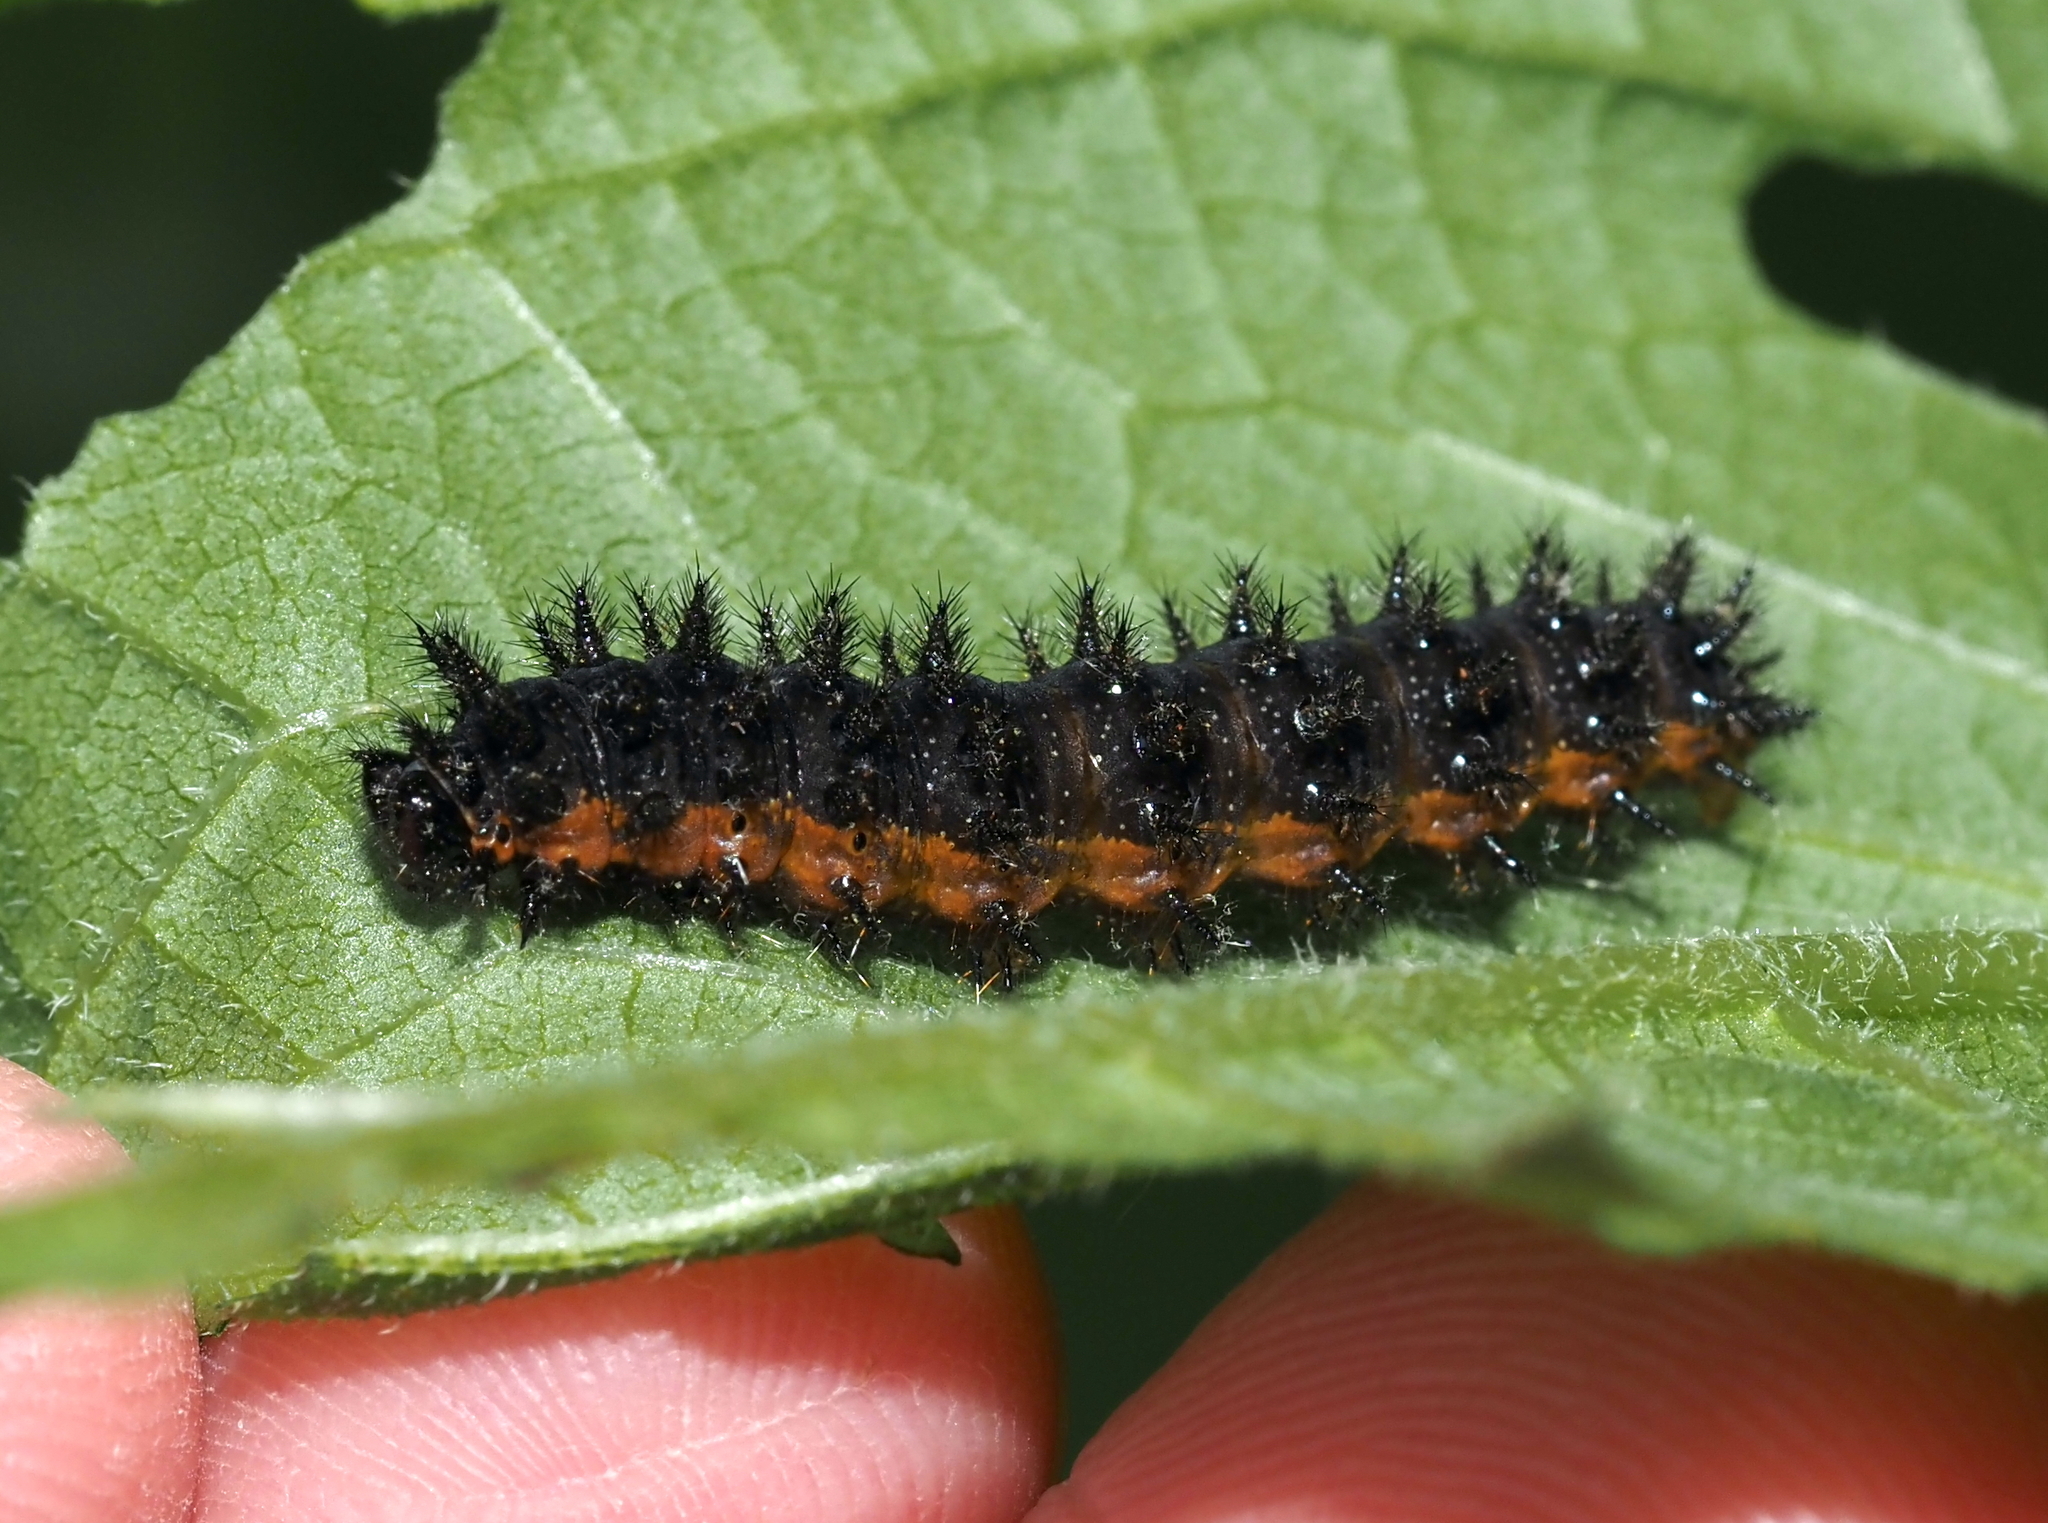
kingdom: Animalia
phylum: Arthropoda
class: Insecta
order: Lepidoptera
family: Nymphalidae
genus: Chlosyne
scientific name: Chlosyne nycteis
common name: Silvery checkerspot
